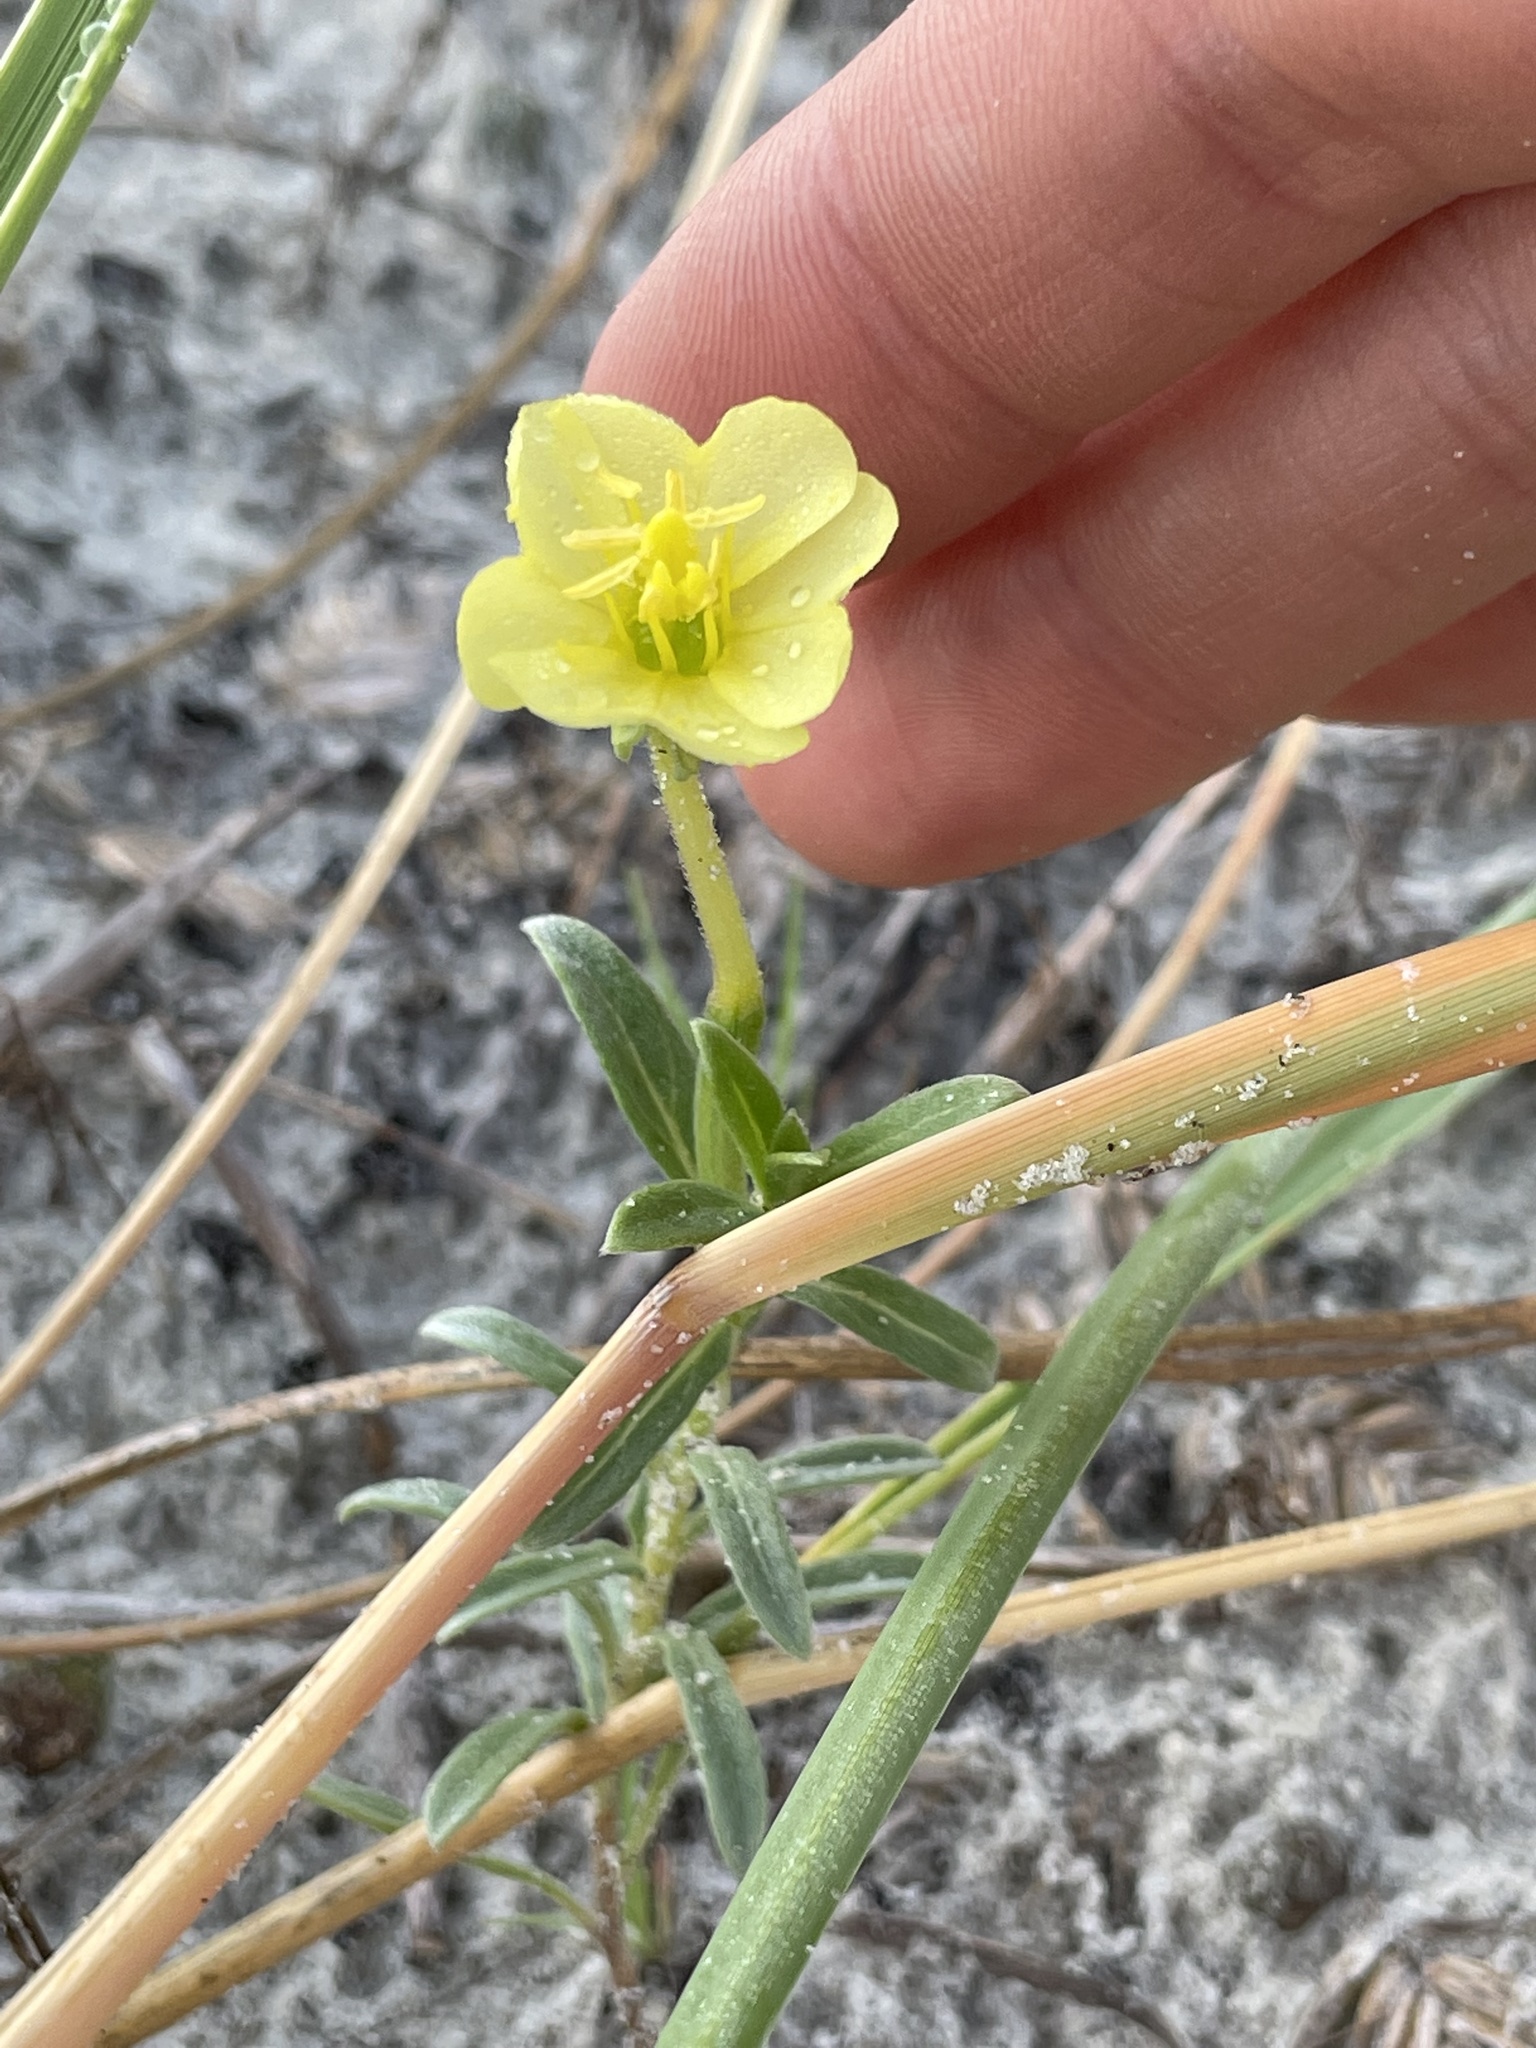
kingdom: Plantae
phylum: Tracheophyta
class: Magnoliopsida
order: Myrtales
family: Onagraceae
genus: Oenothera
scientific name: Oenothera humifusa
